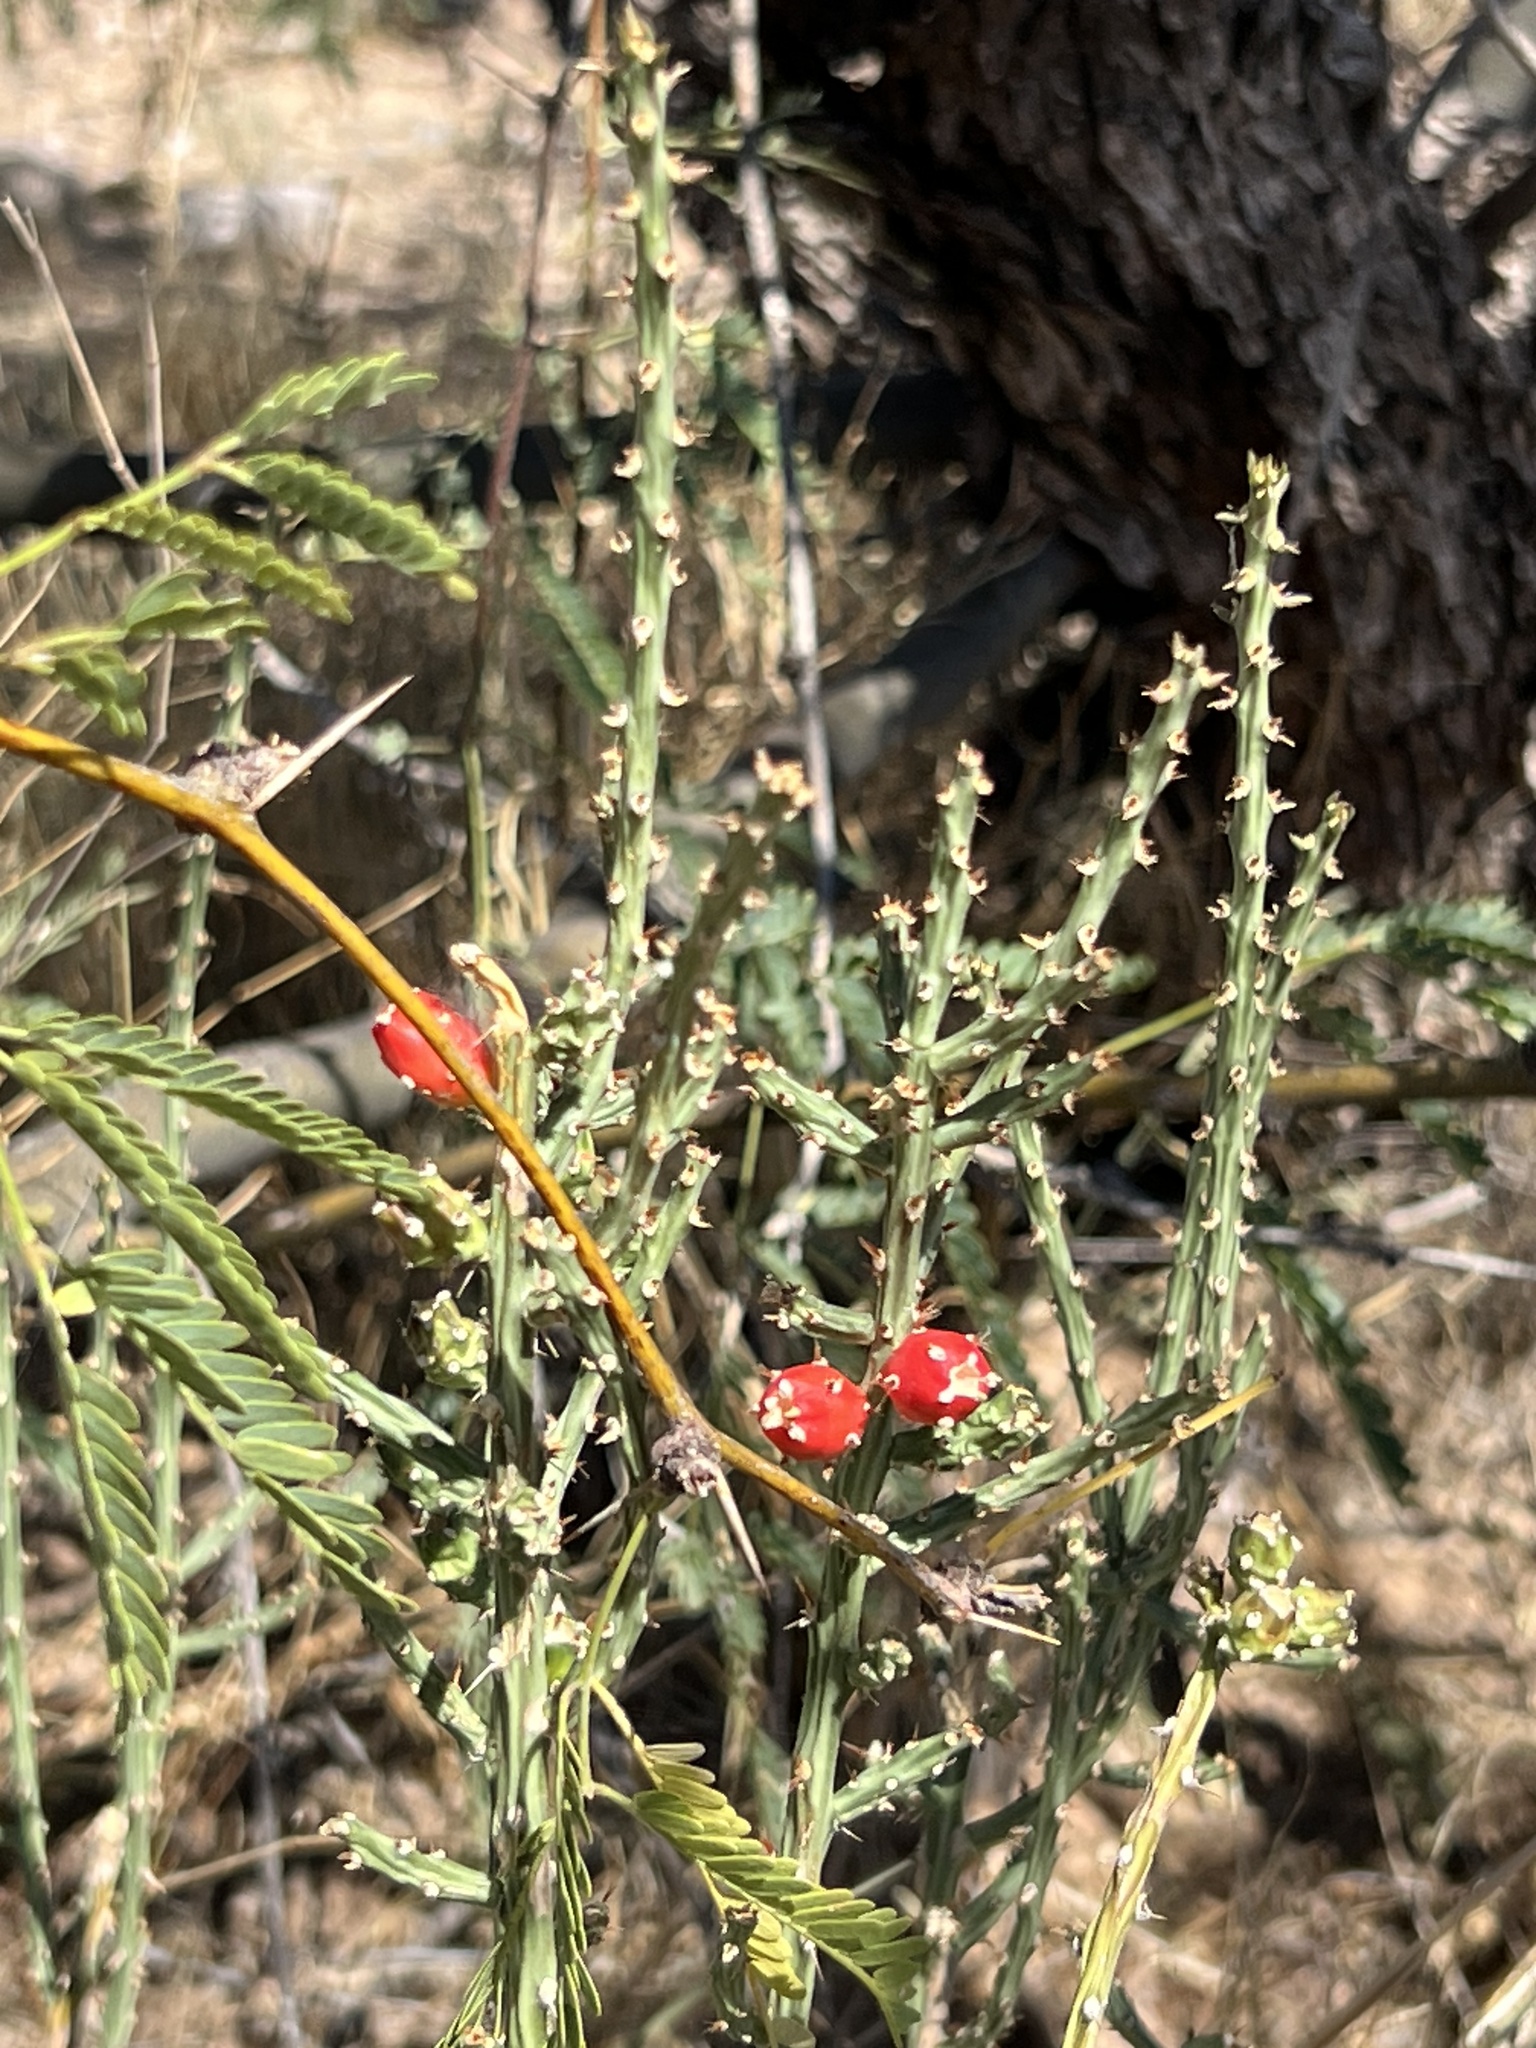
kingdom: Plantae
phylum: Tracheophyta
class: Magnoliopsida
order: Caryophyllales
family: Cactaceae
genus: Cylindropuntia
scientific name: Cylindropuntia leptocaulis
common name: Christmas cactus
